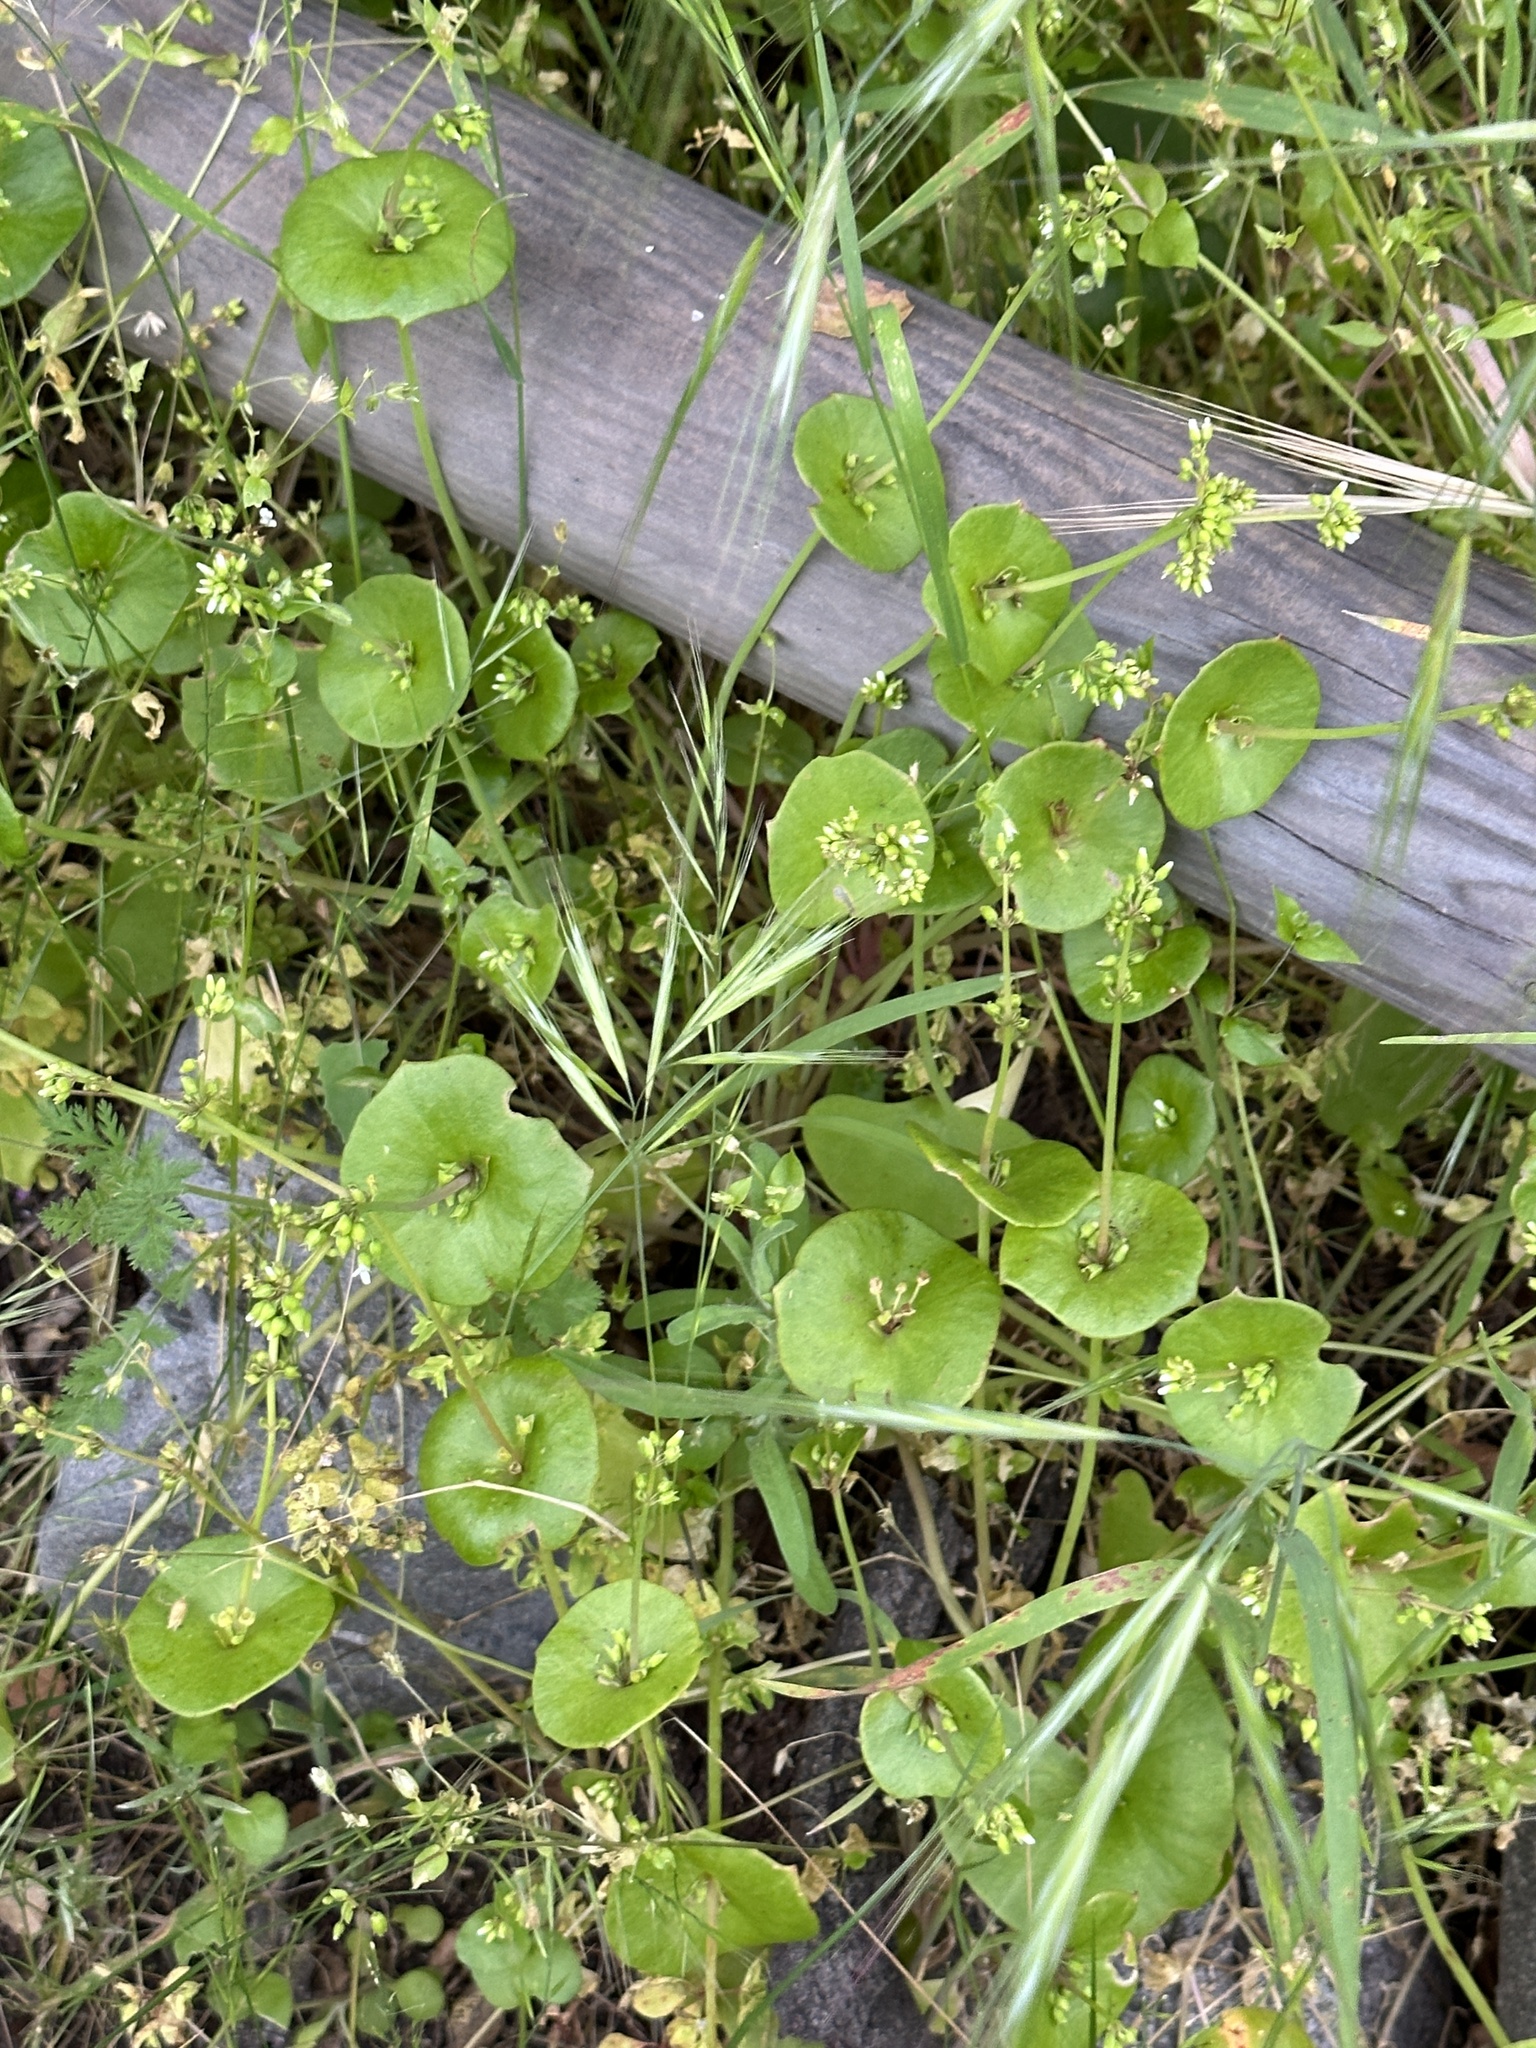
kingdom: Plantae
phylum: Tracheophyta
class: Magnoliopsida
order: Caryophyllales
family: Montiaceae
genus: Claytonia
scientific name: Claytonia perfoliata
